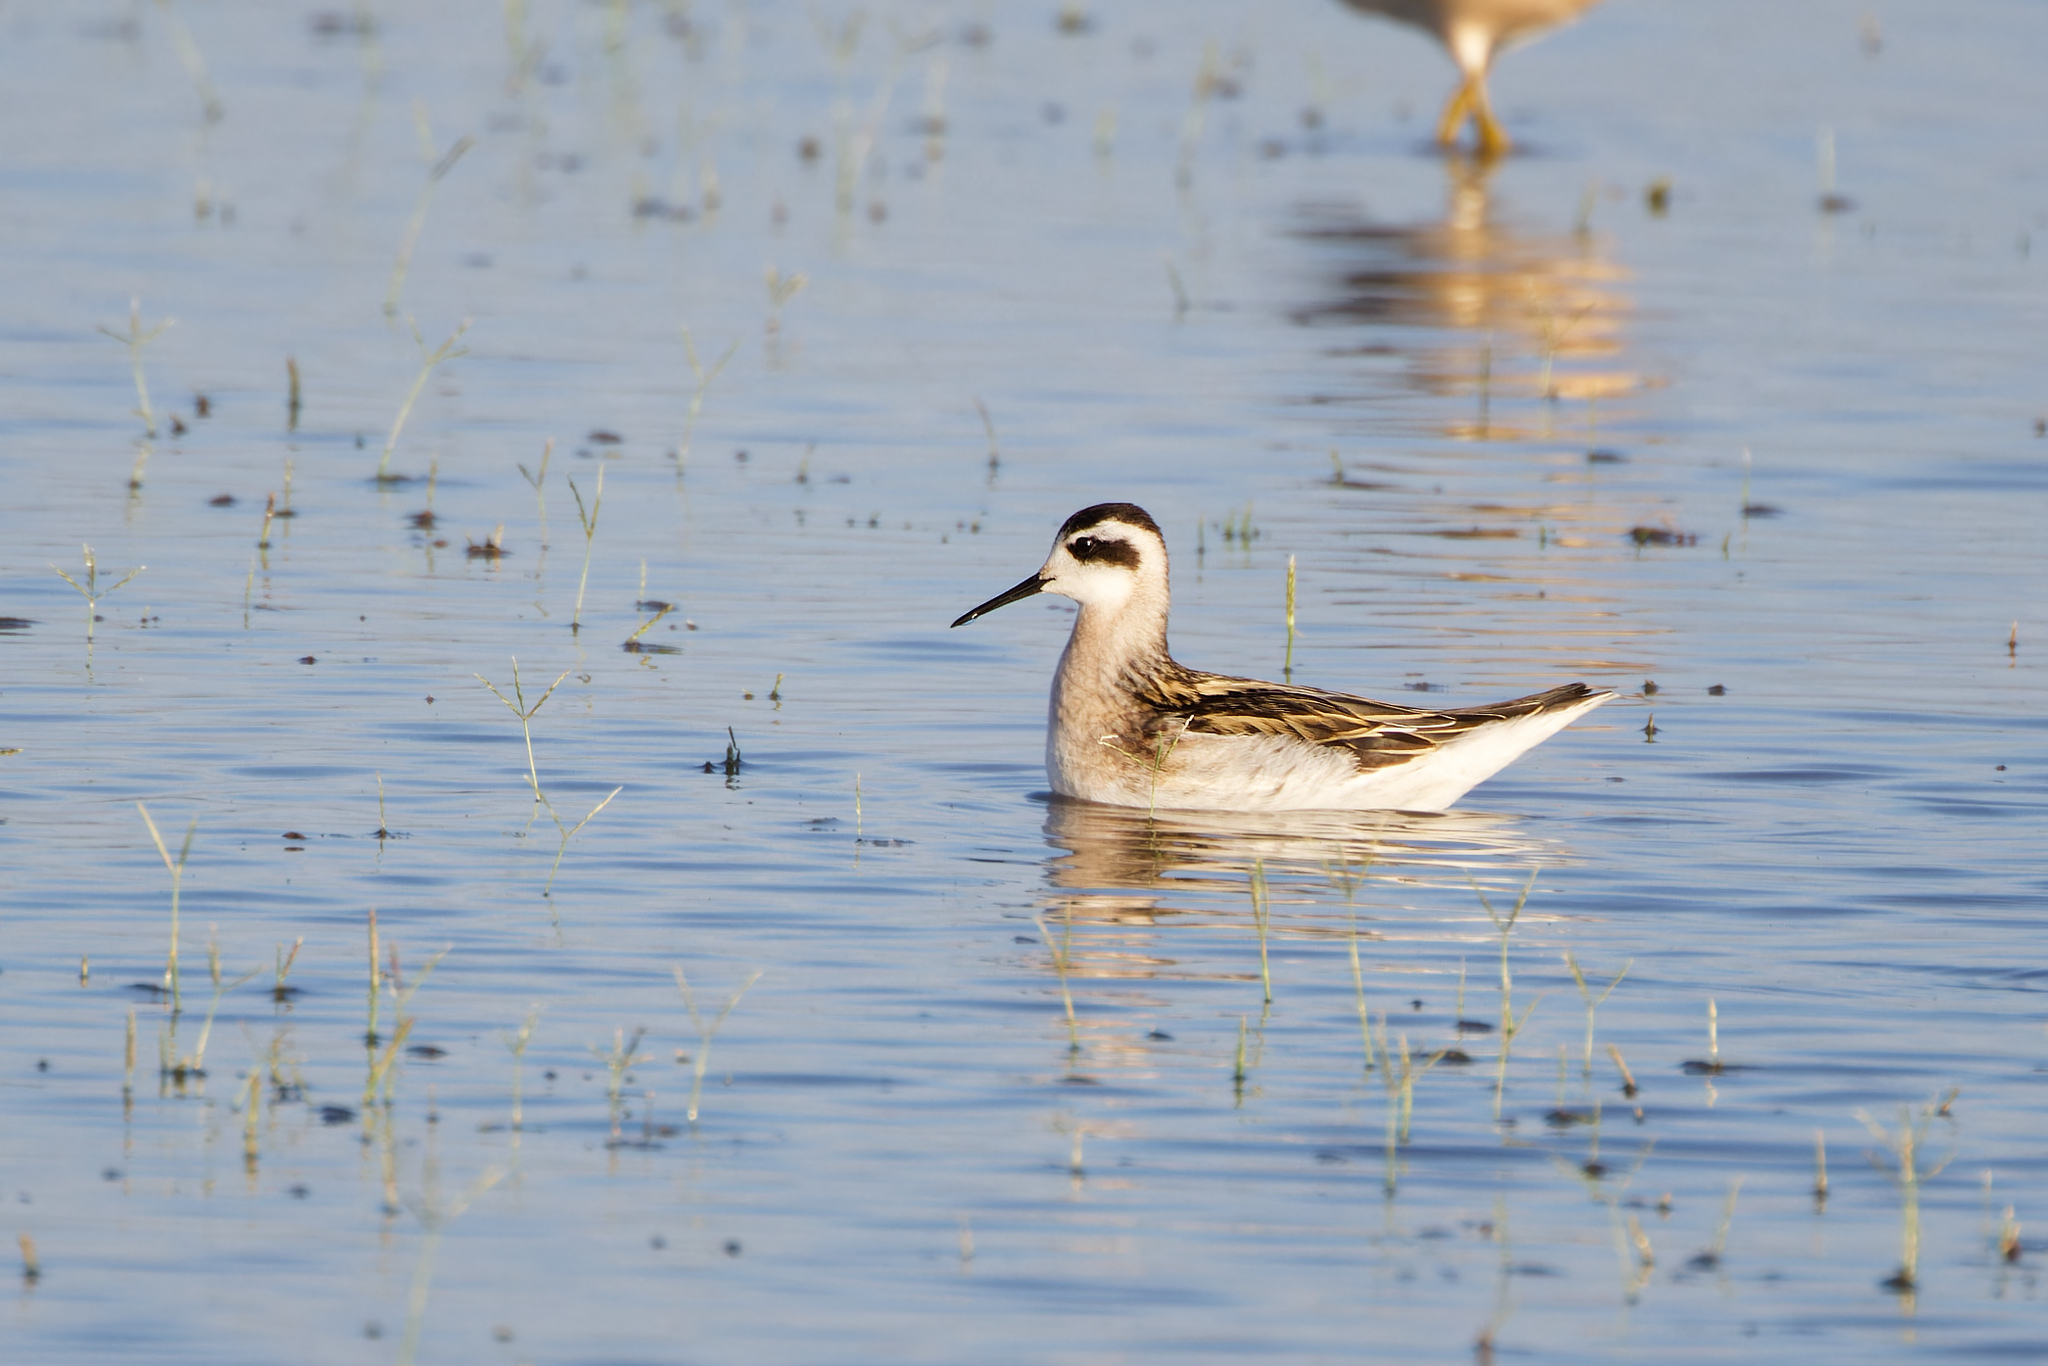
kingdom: Animalia
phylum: Chordata
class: Aves
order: Charadriiformes
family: Scolopacidae
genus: Phalaropus
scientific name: Phalaropus lobatus
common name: Red-necked phalarope
